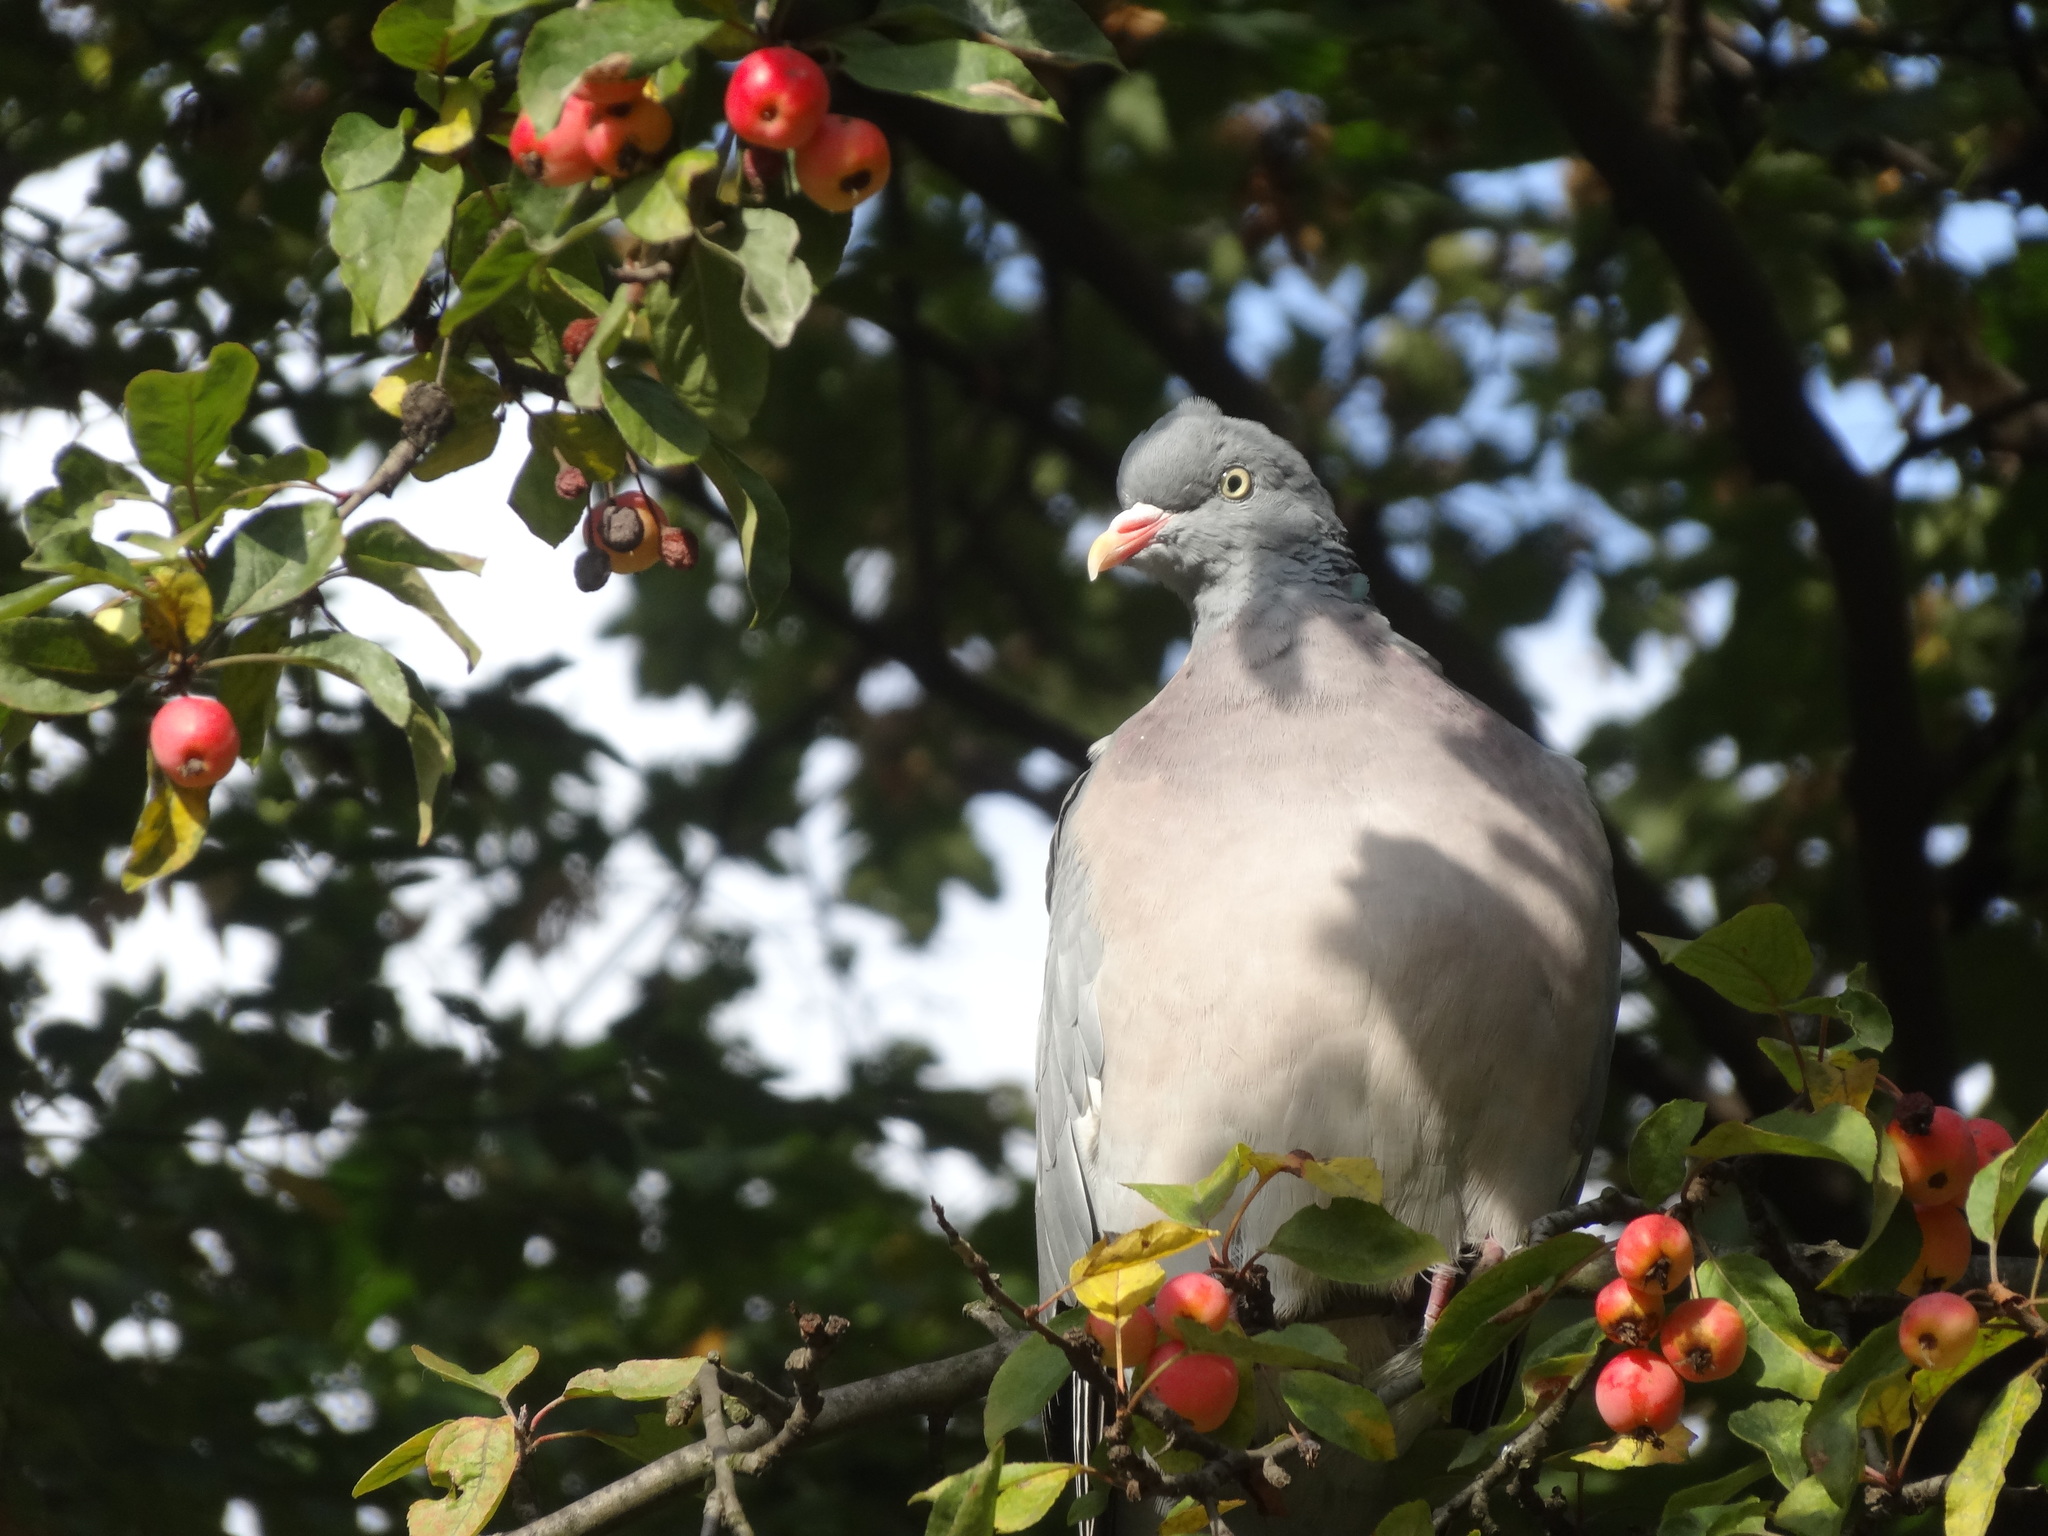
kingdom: Animalia
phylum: Chordata
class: Aves
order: Columbiformes
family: Columbidae
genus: Columba
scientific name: Columba palumbus
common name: Common wood pigeon
